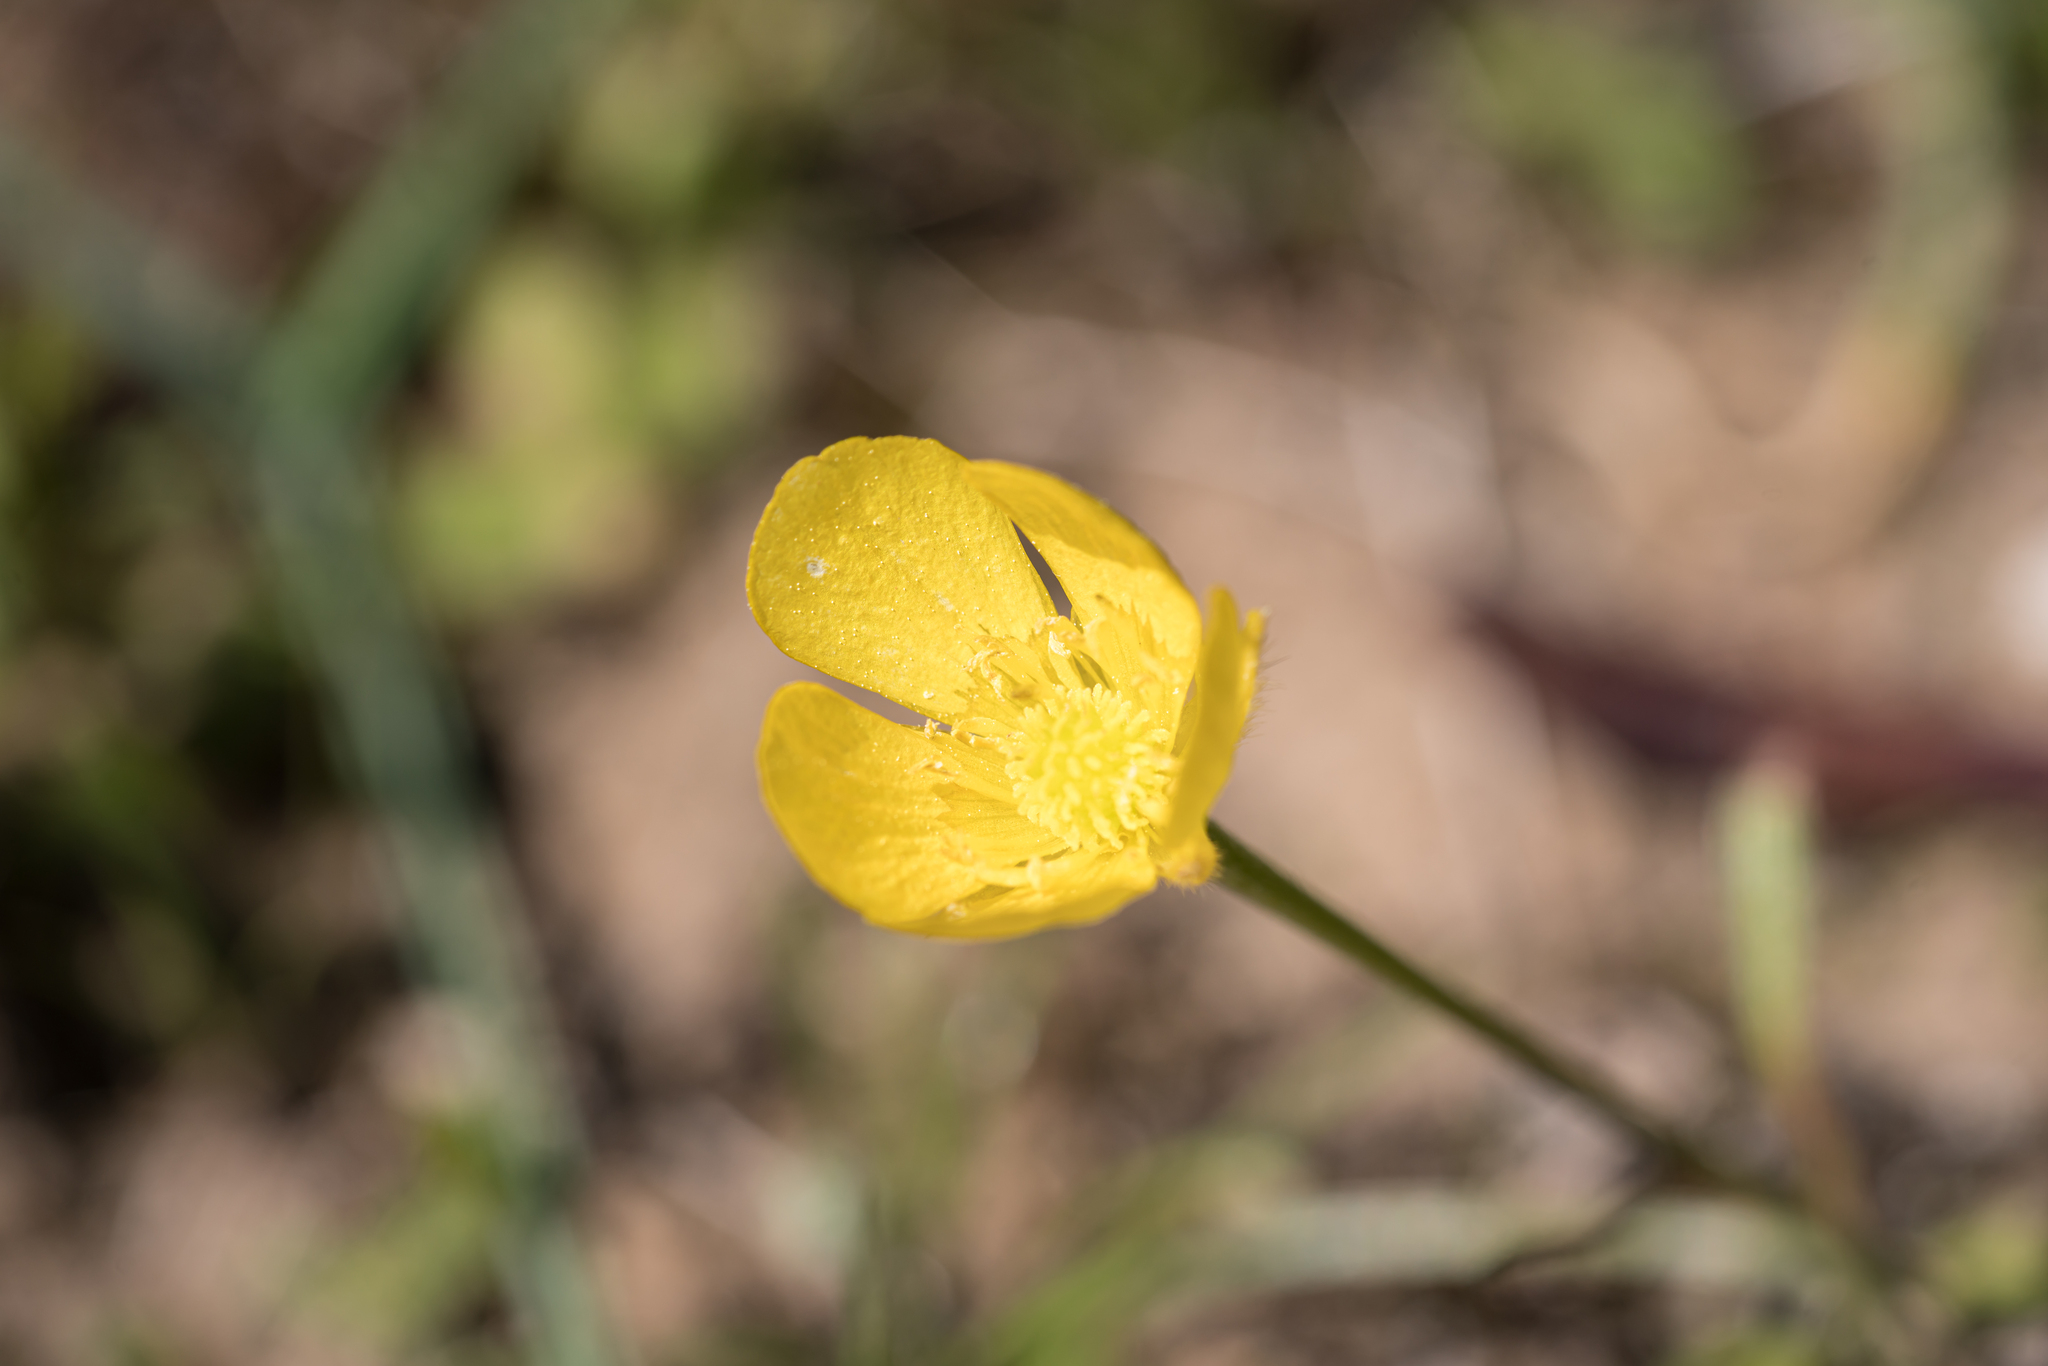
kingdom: Plantae
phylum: Tracheophyta
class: Magnoliopsida
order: Ranunculales
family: Ranunculaceae
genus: Ranunculus
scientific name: Ranunculus paludosus
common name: Jersey buttercup
